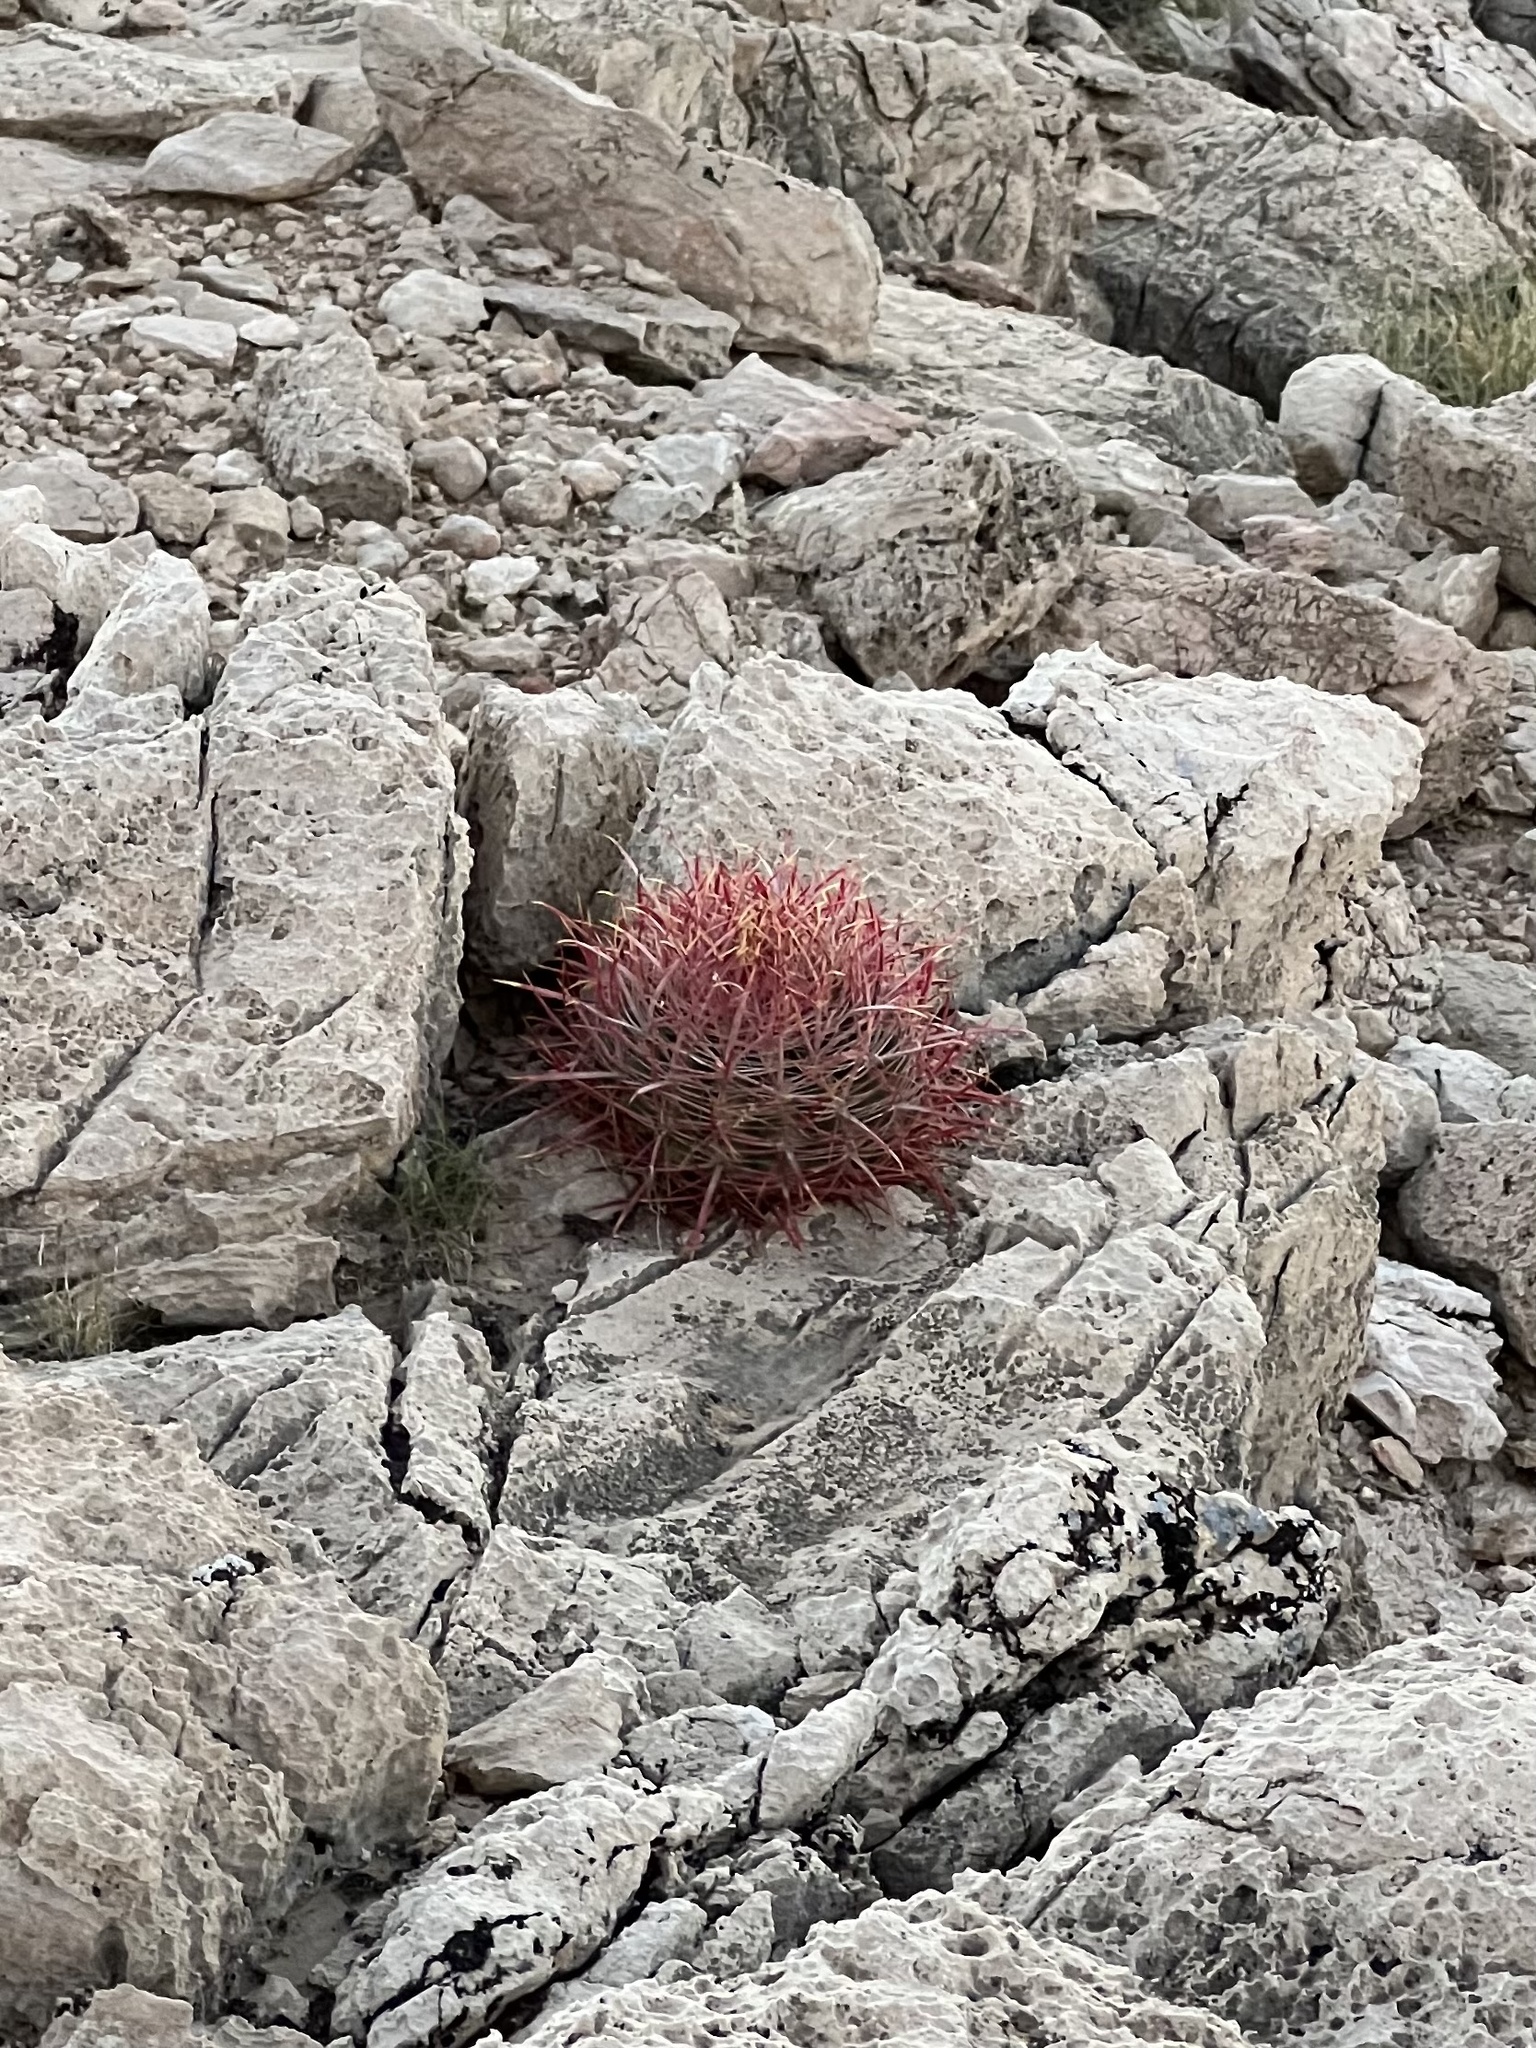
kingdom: Plantae
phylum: Tracheophyta
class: Magnoliopsida
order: Caryophyllales
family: Cactaceae
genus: Ferocactus
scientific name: Ferocactus cylindraceus
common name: California barrel cactus
